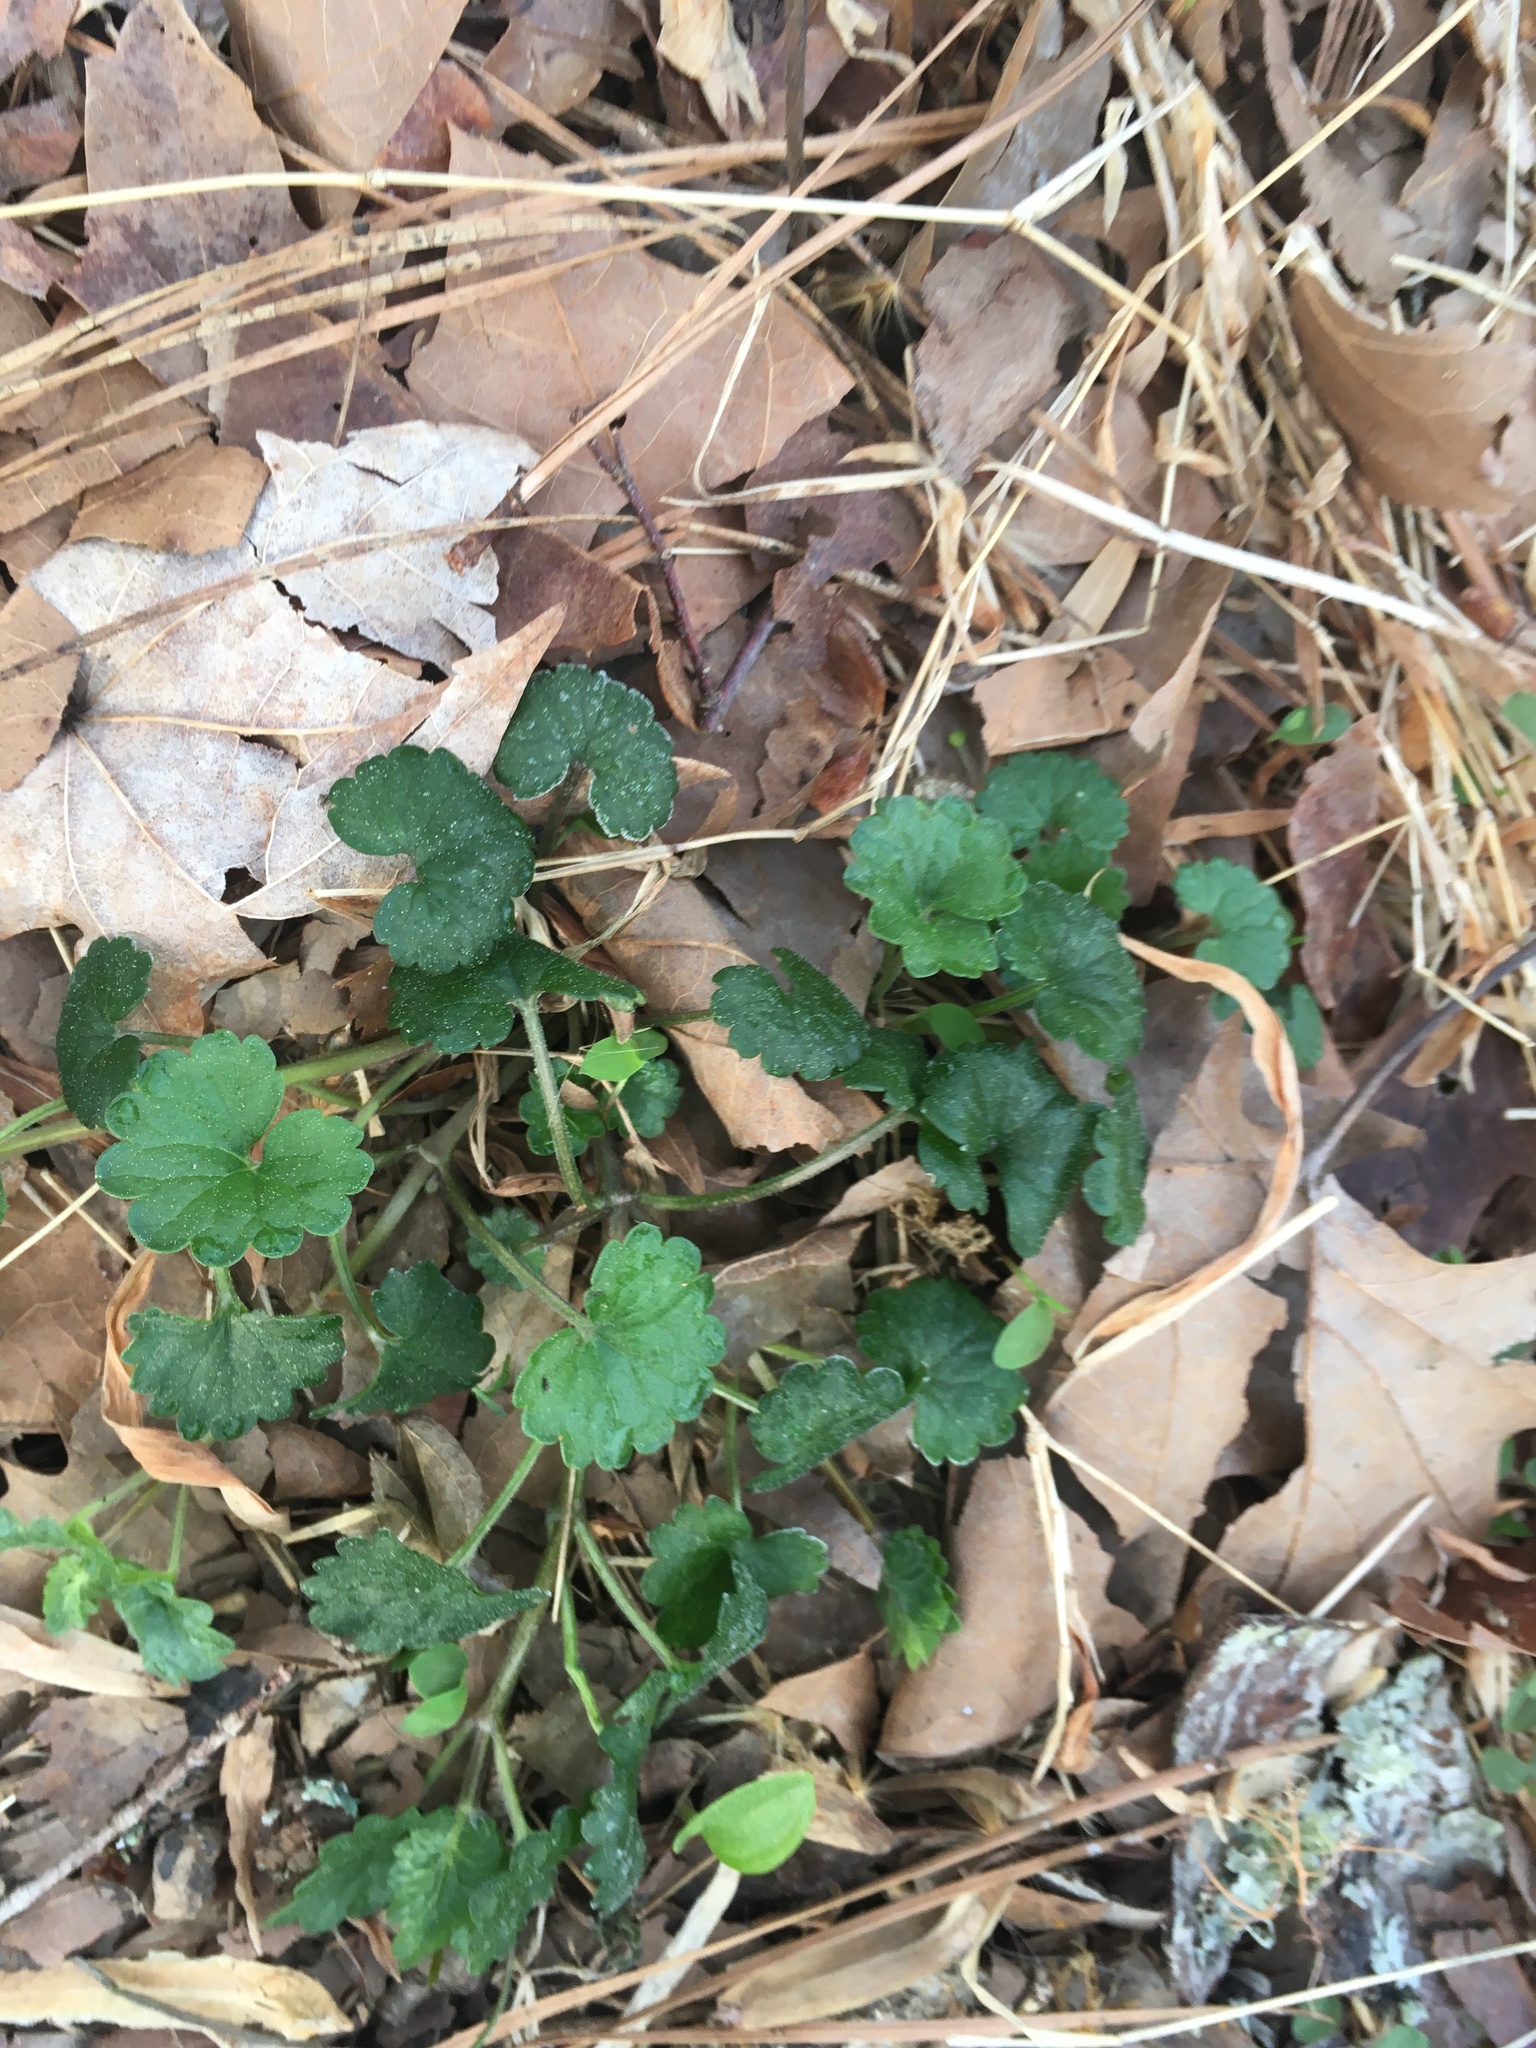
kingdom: Plantae
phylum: Tracheophyta
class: Magnoliopsida
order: Lamiales
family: Lamiaceae
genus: Glechoma
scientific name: Glechoma hederacea
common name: Ground ivy
